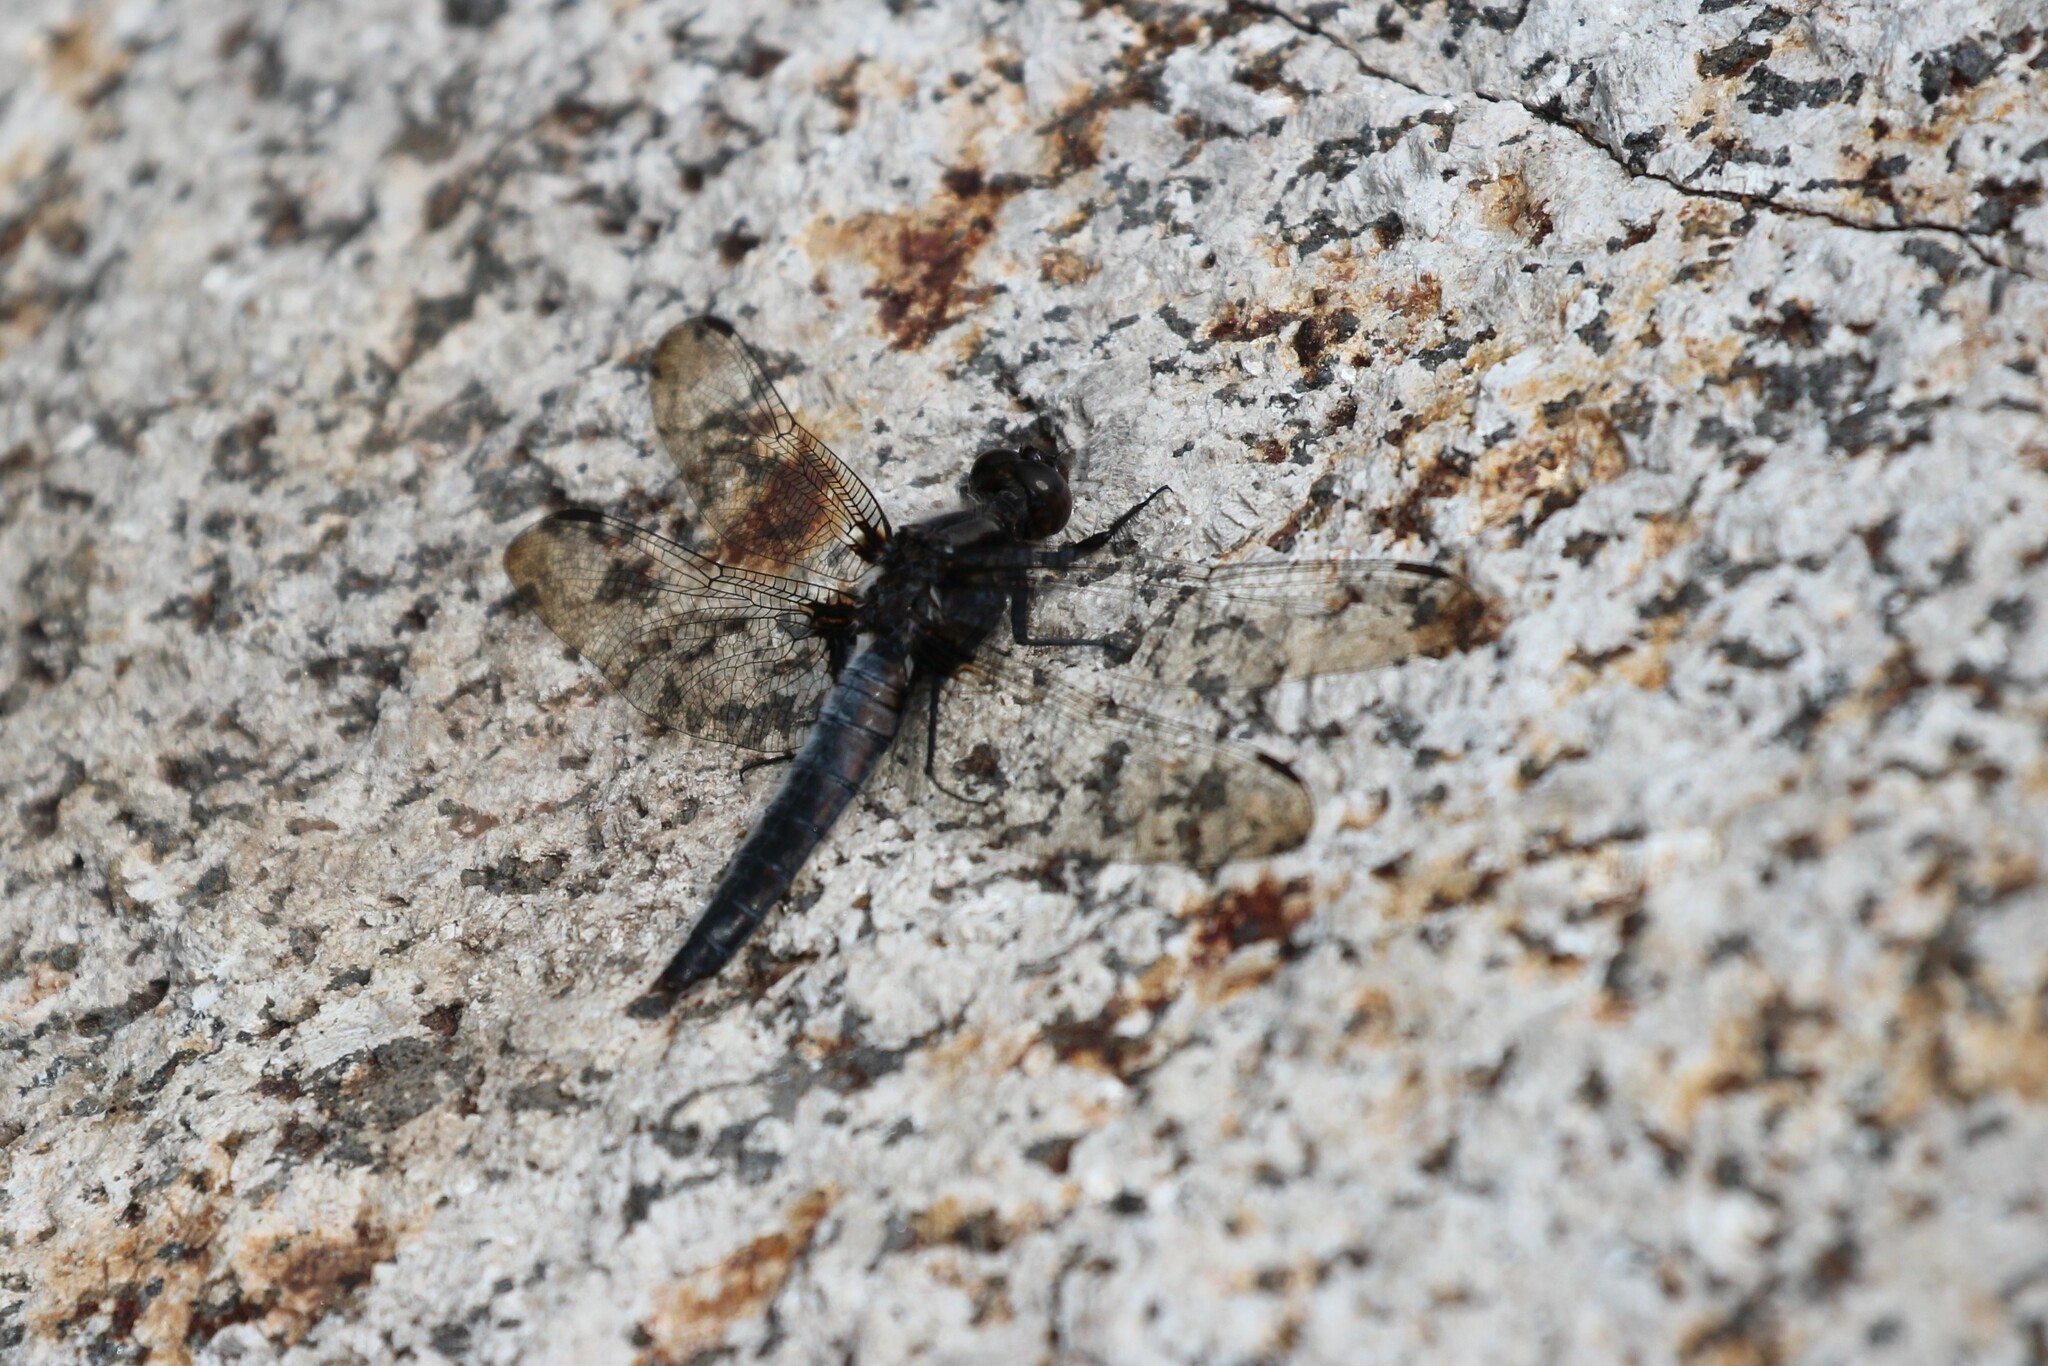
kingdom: Animalia
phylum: Arthropoda
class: Insecta
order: Odonata
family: Libellulidae
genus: Ladona
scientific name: Ladona julia
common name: Chalk-fronted corporal
